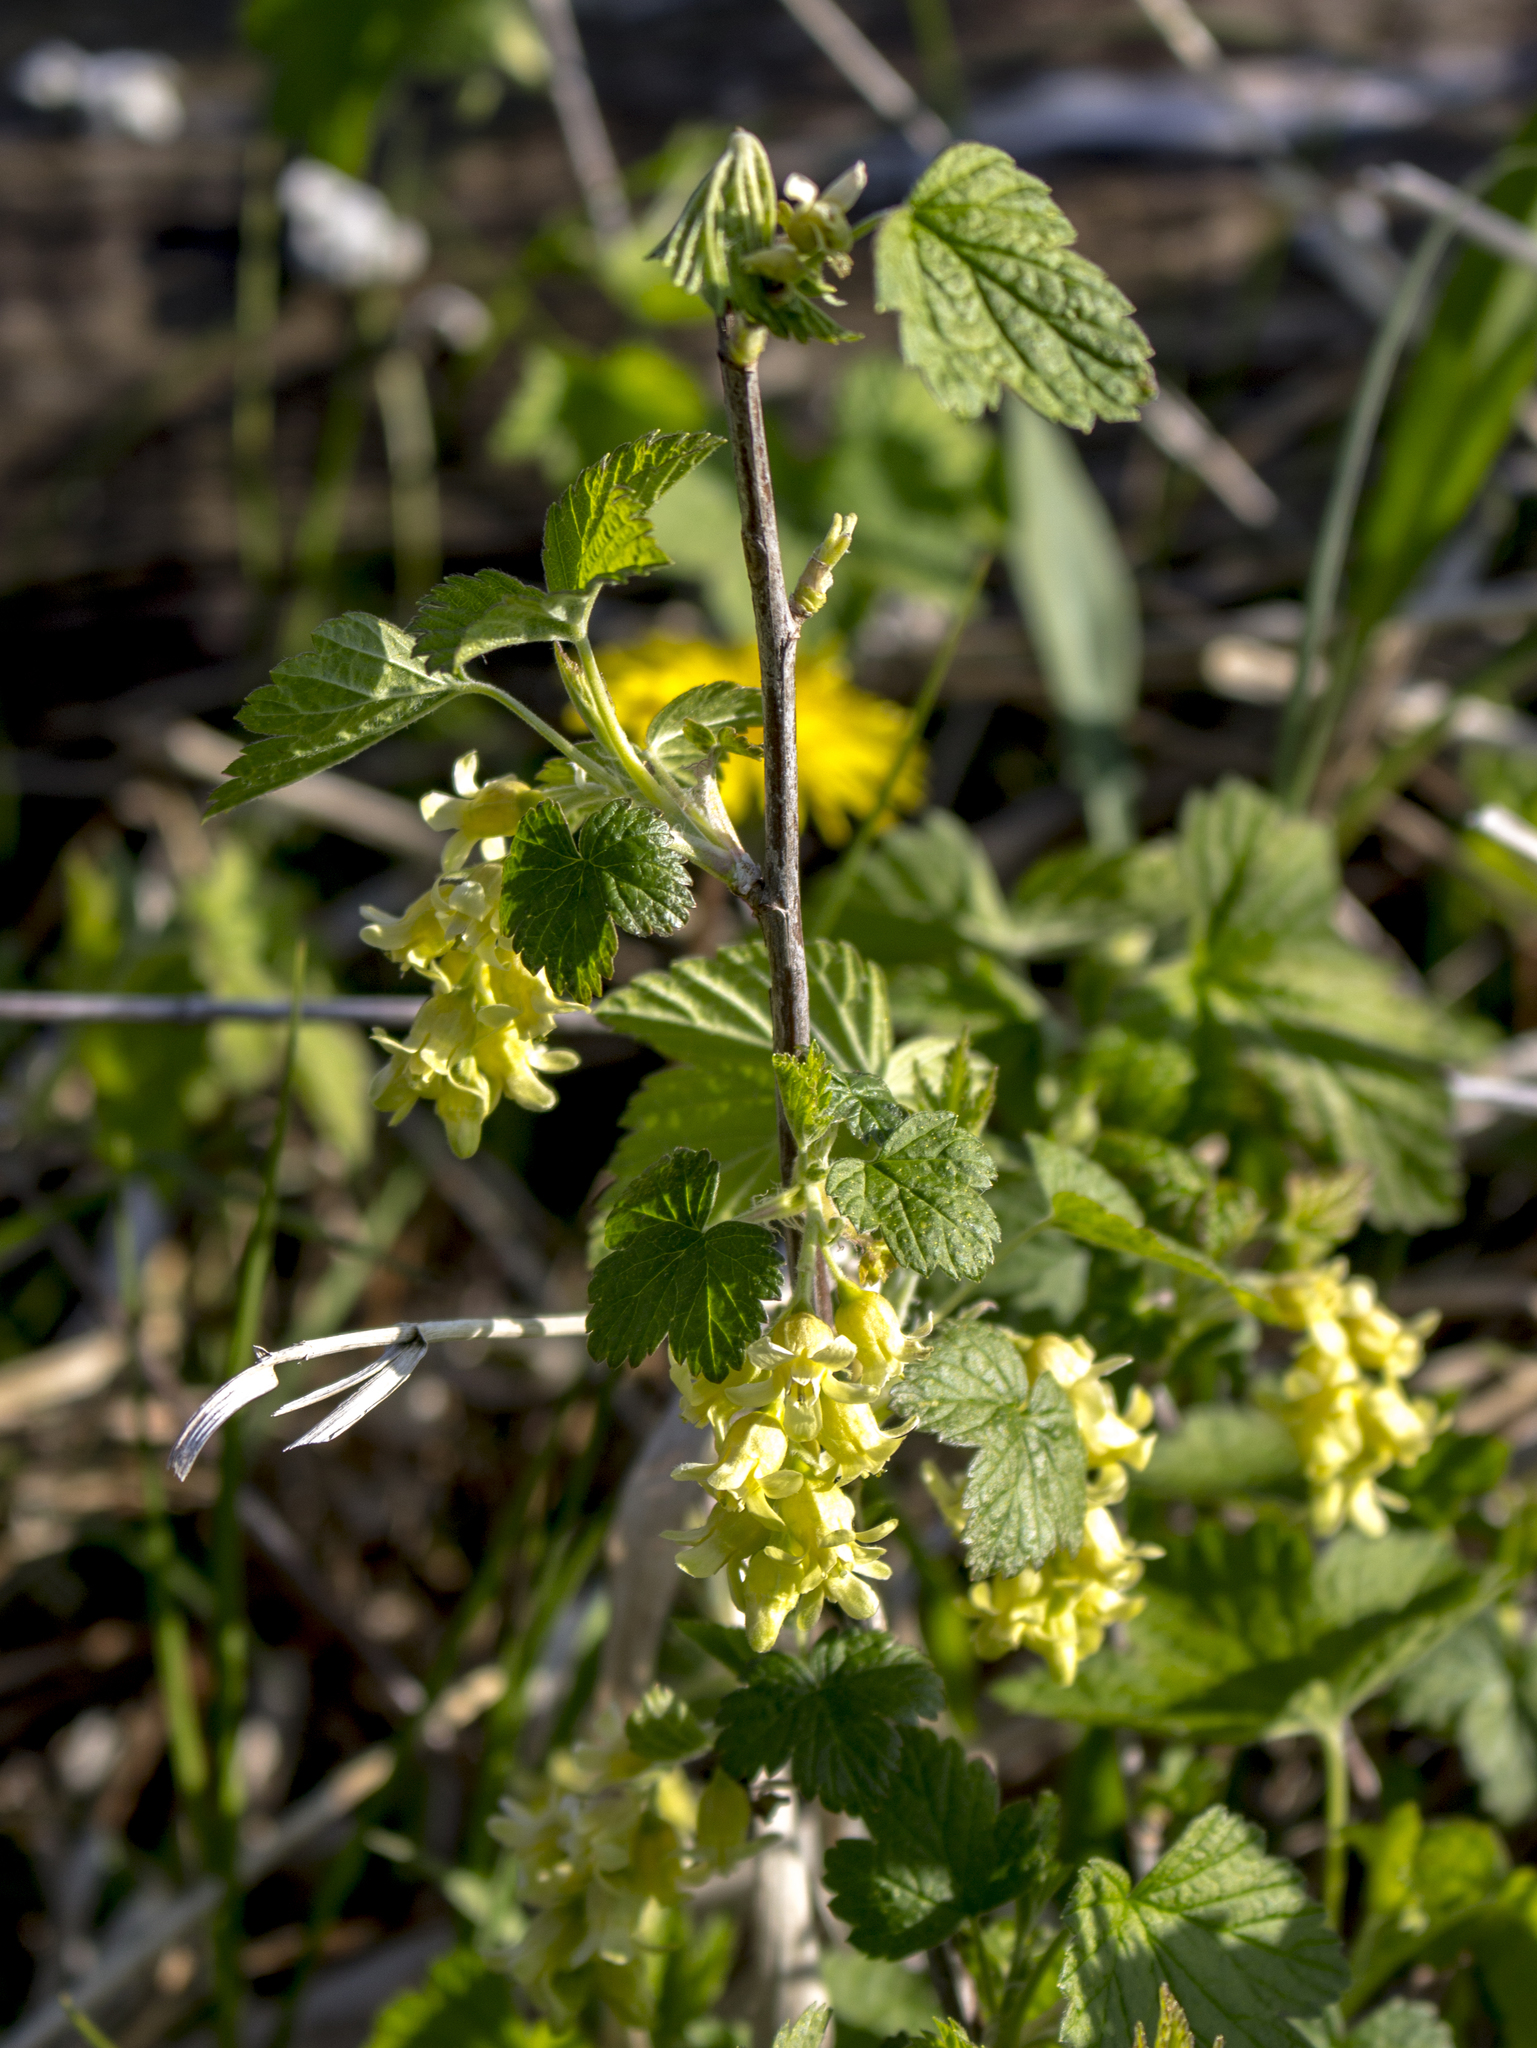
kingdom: Plantae
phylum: Tracheophyta
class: Magnoliopsida
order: Saxifragales
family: Grossulariaceae
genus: Ribes
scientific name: Ribes americanum
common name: American black currant
